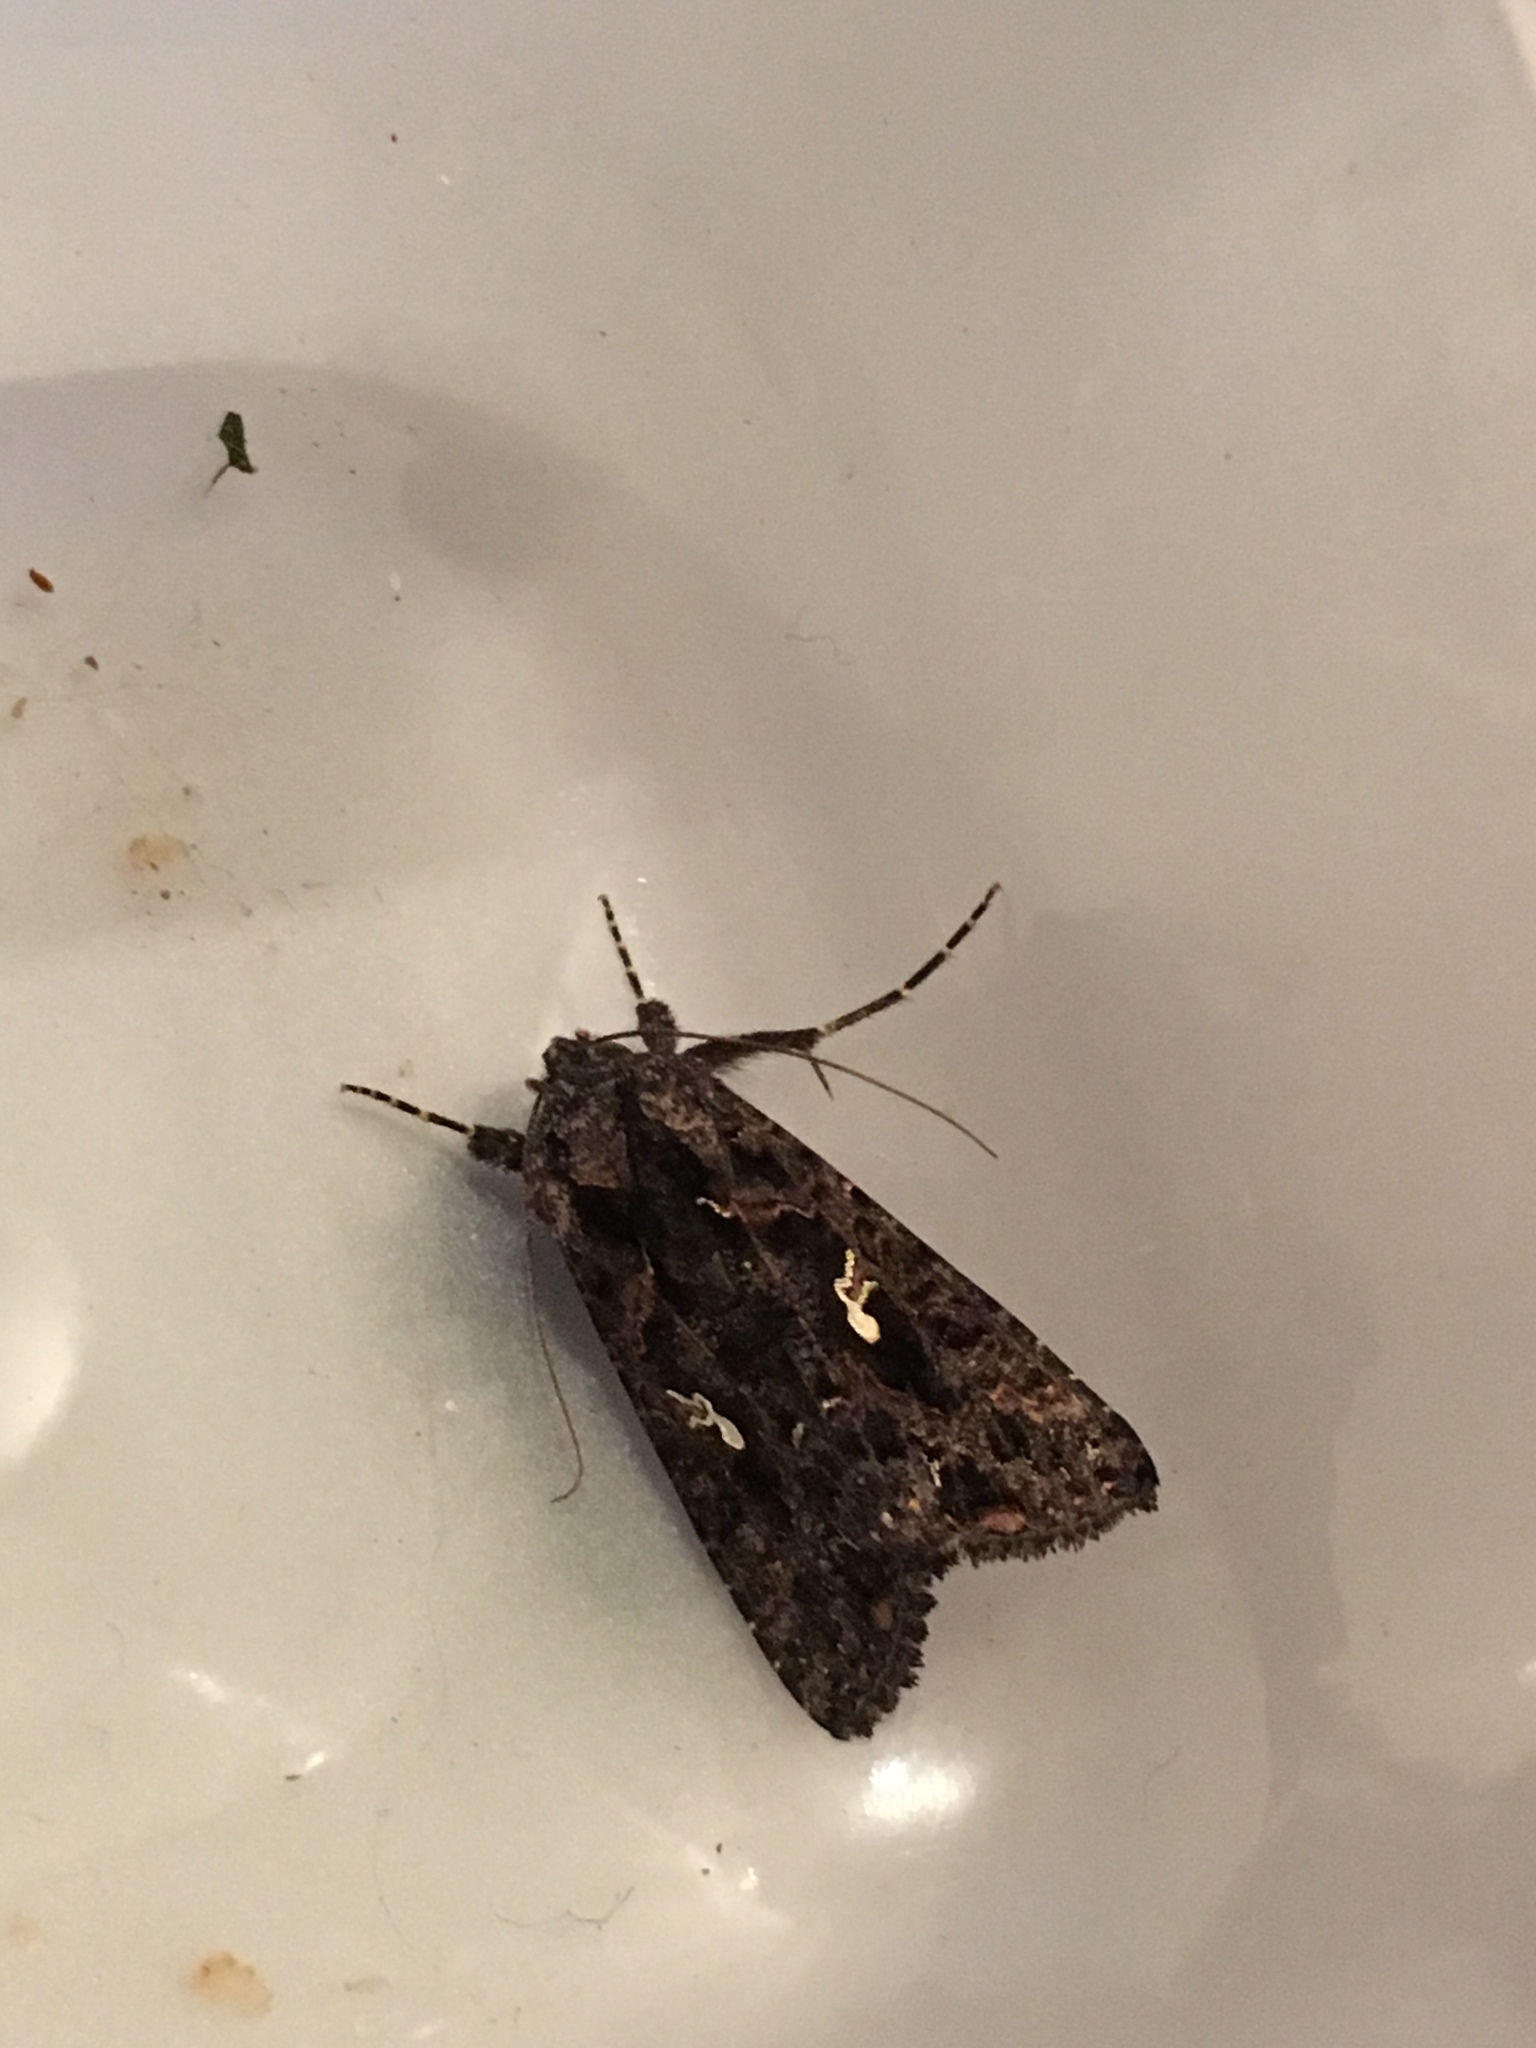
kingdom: Animalia
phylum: Arthropoda
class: Insecta
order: Lepidoptera
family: Noctuidae
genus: Ctenoplusia
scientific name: Ctenoplusia limbirena
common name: Scar bank gem
